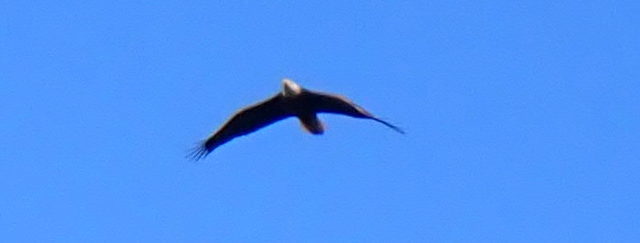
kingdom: Animalia
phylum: Chordata
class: Aves
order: Accipitriformes
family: Accipitridae
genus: Haliaeetus
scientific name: Haliaeetus leucocephalus
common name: Bald eagle
